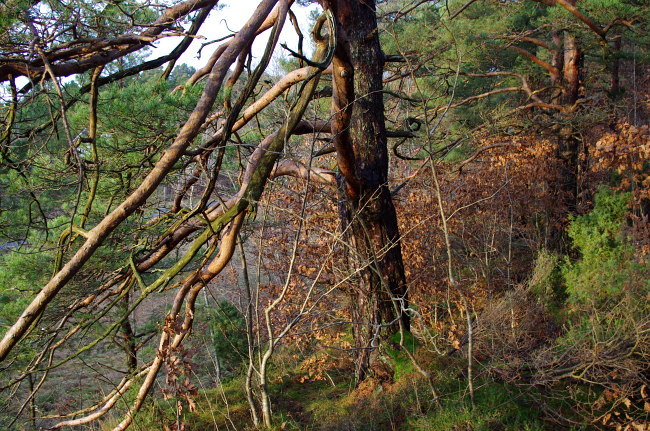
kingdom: Plantae
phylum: Tracheophyta
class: Pinopsida
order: Pinales
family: Pinaceae
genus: Pinus
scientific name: Pinus sylvestris
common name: Scots pine
